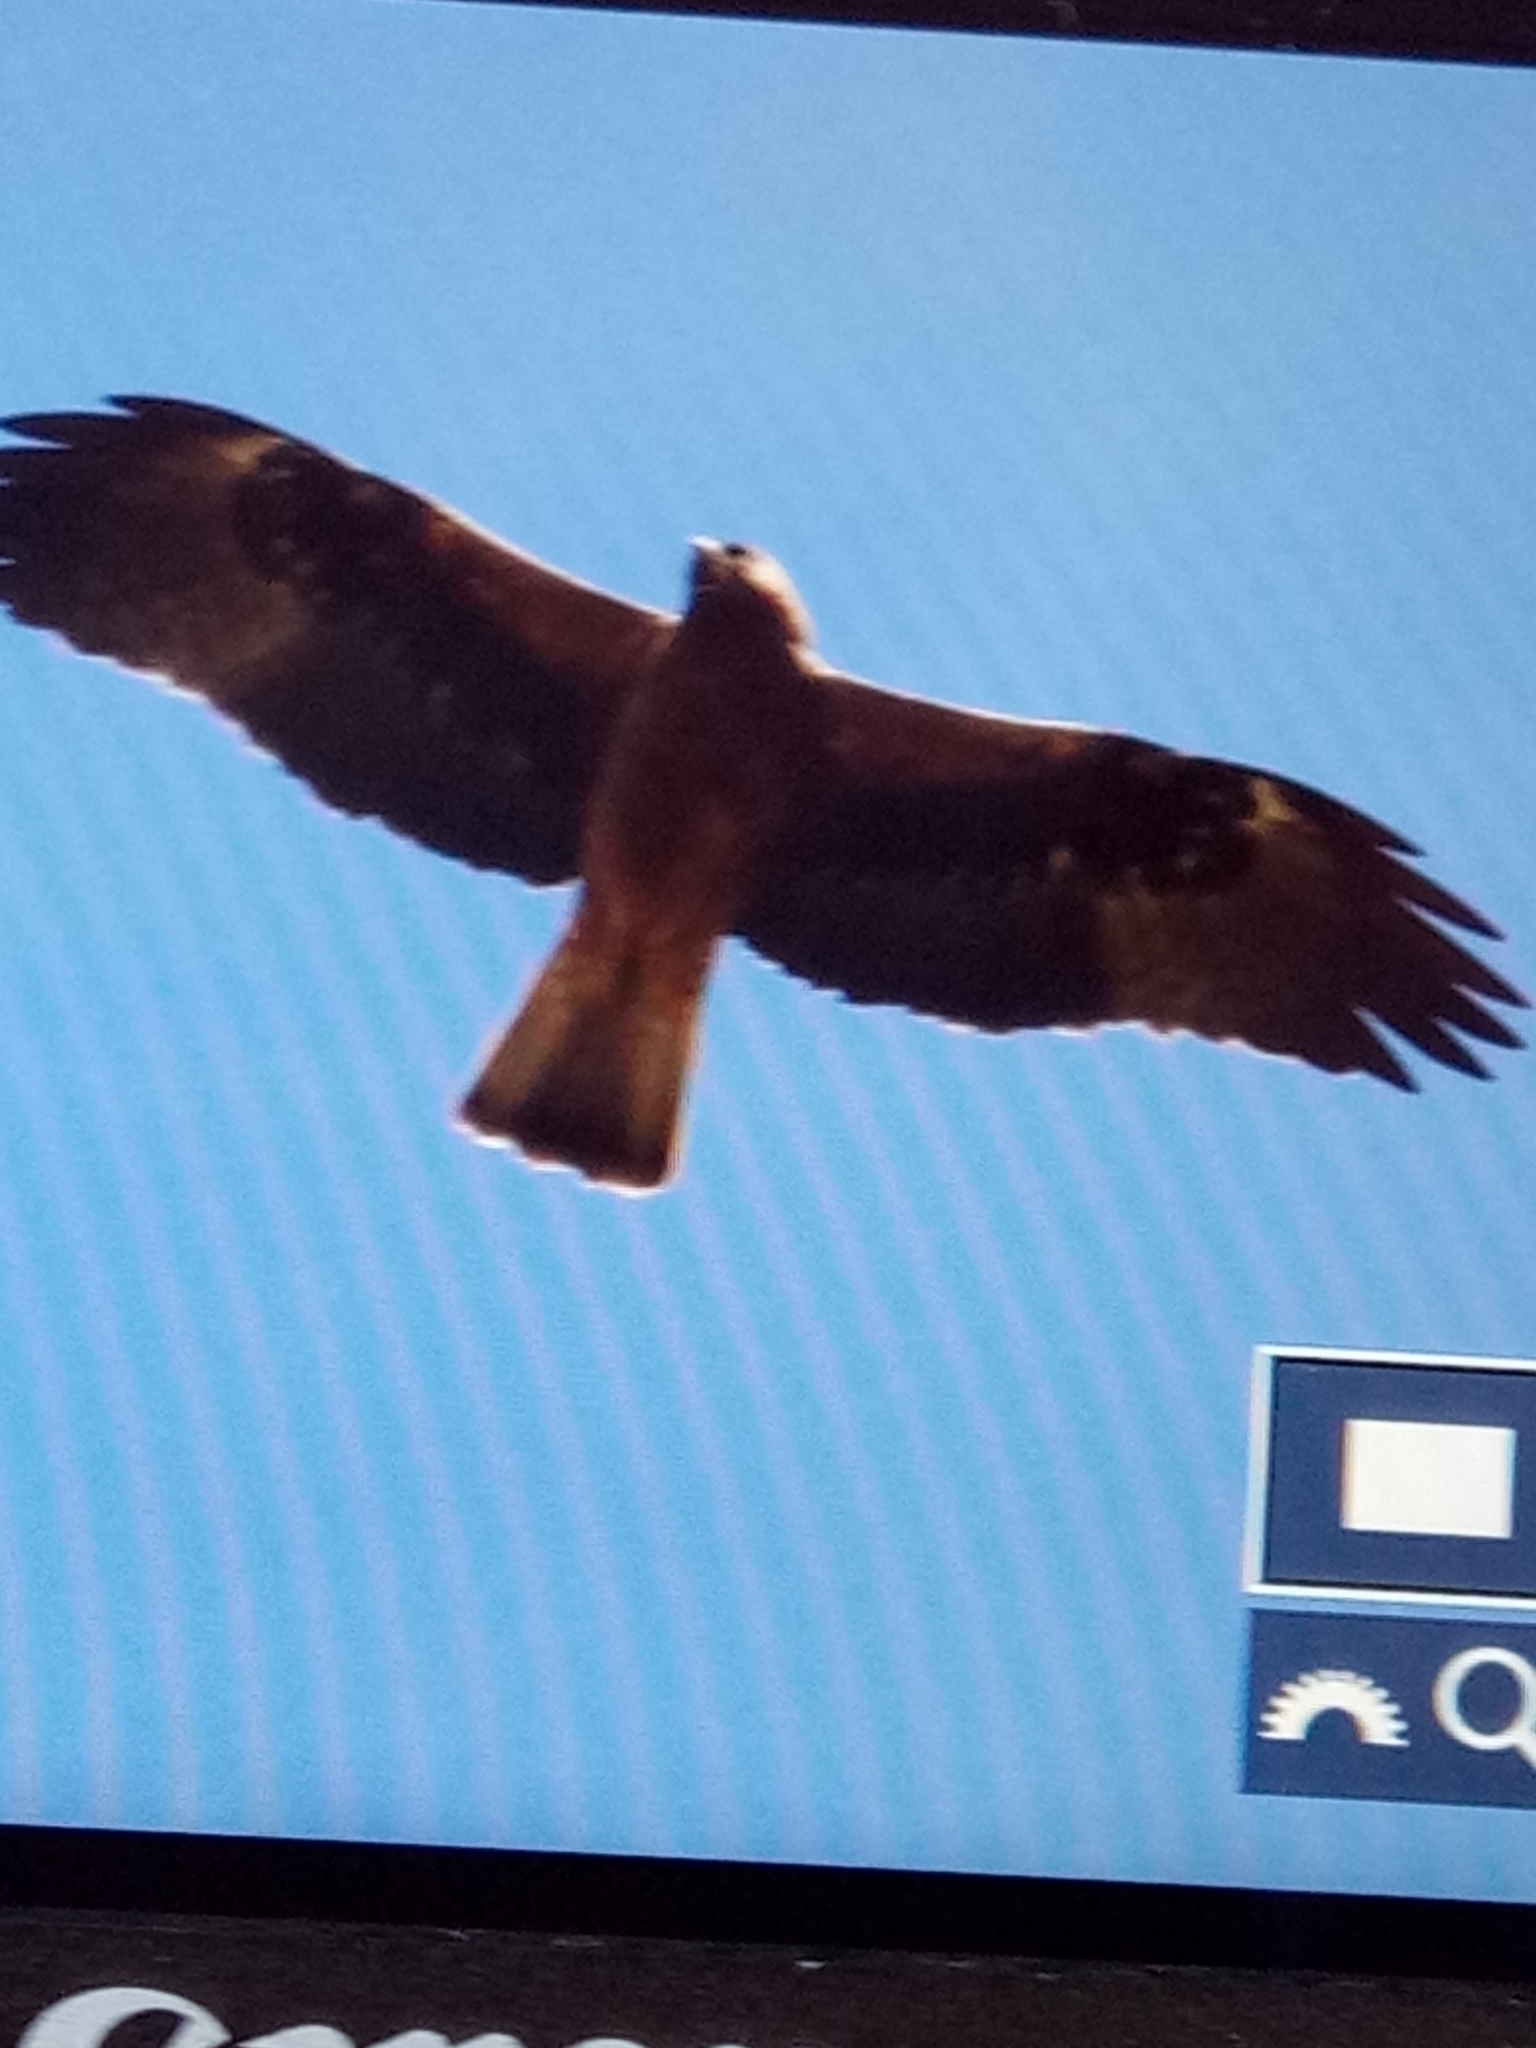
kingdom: Animalia
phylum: Chordata
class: Aves
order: Accipitriformes
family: Accipitridae
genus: Hieraaetus
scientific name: Hieraaetus pennatus
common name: Booted eagle
